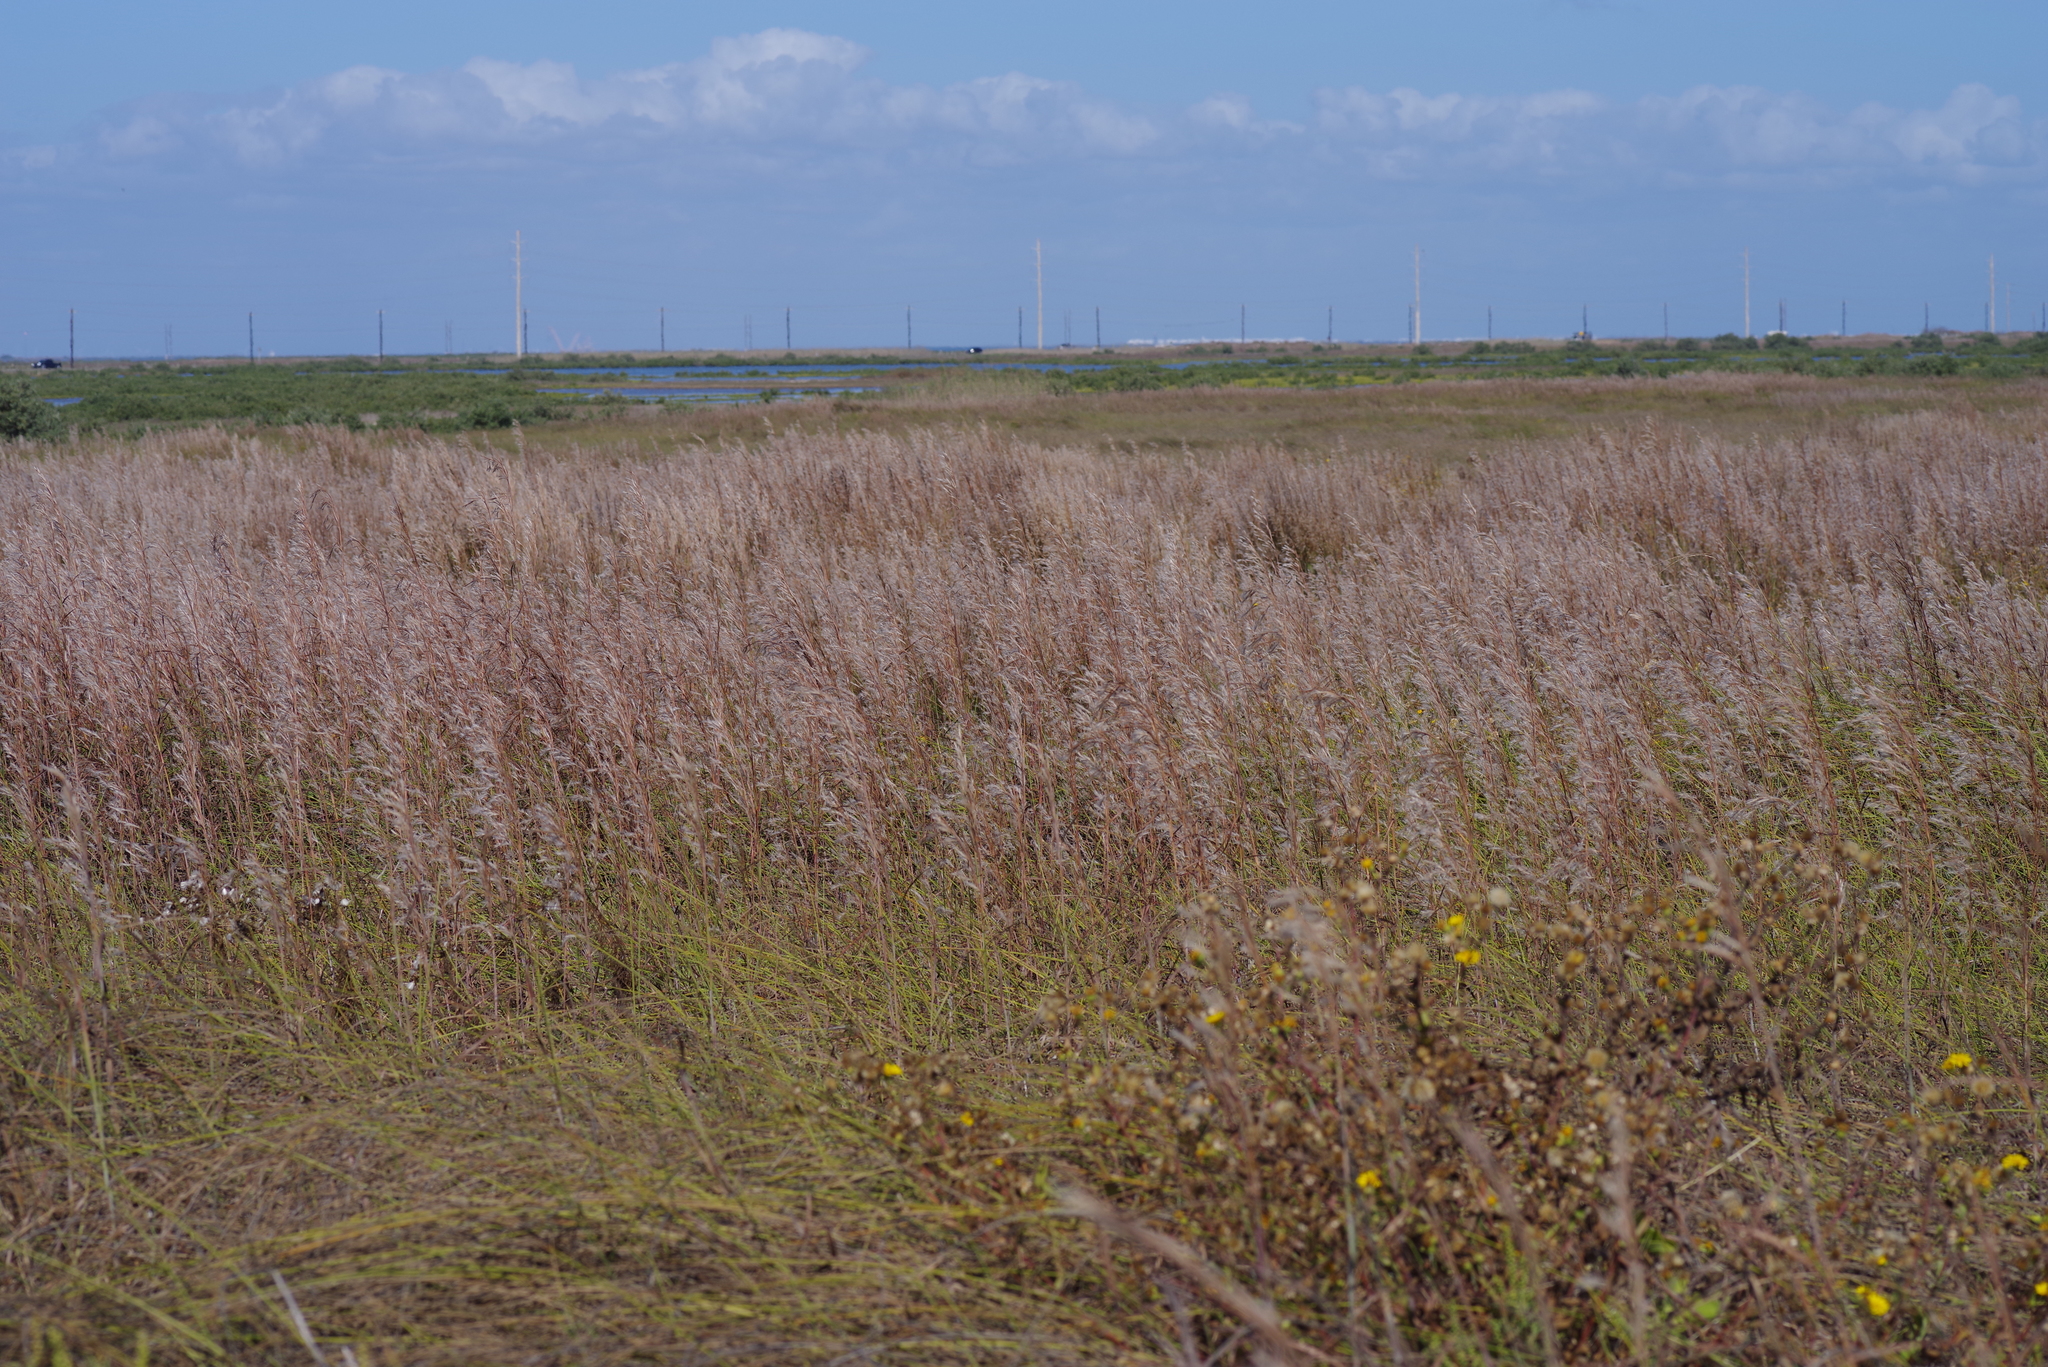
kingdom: Plantae
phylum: Tracheophyta
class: Liliopsida
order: Poales
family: Poaceae
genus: Schizachyrium
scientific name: Schizachyrium scoparium
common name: Little bluestem
